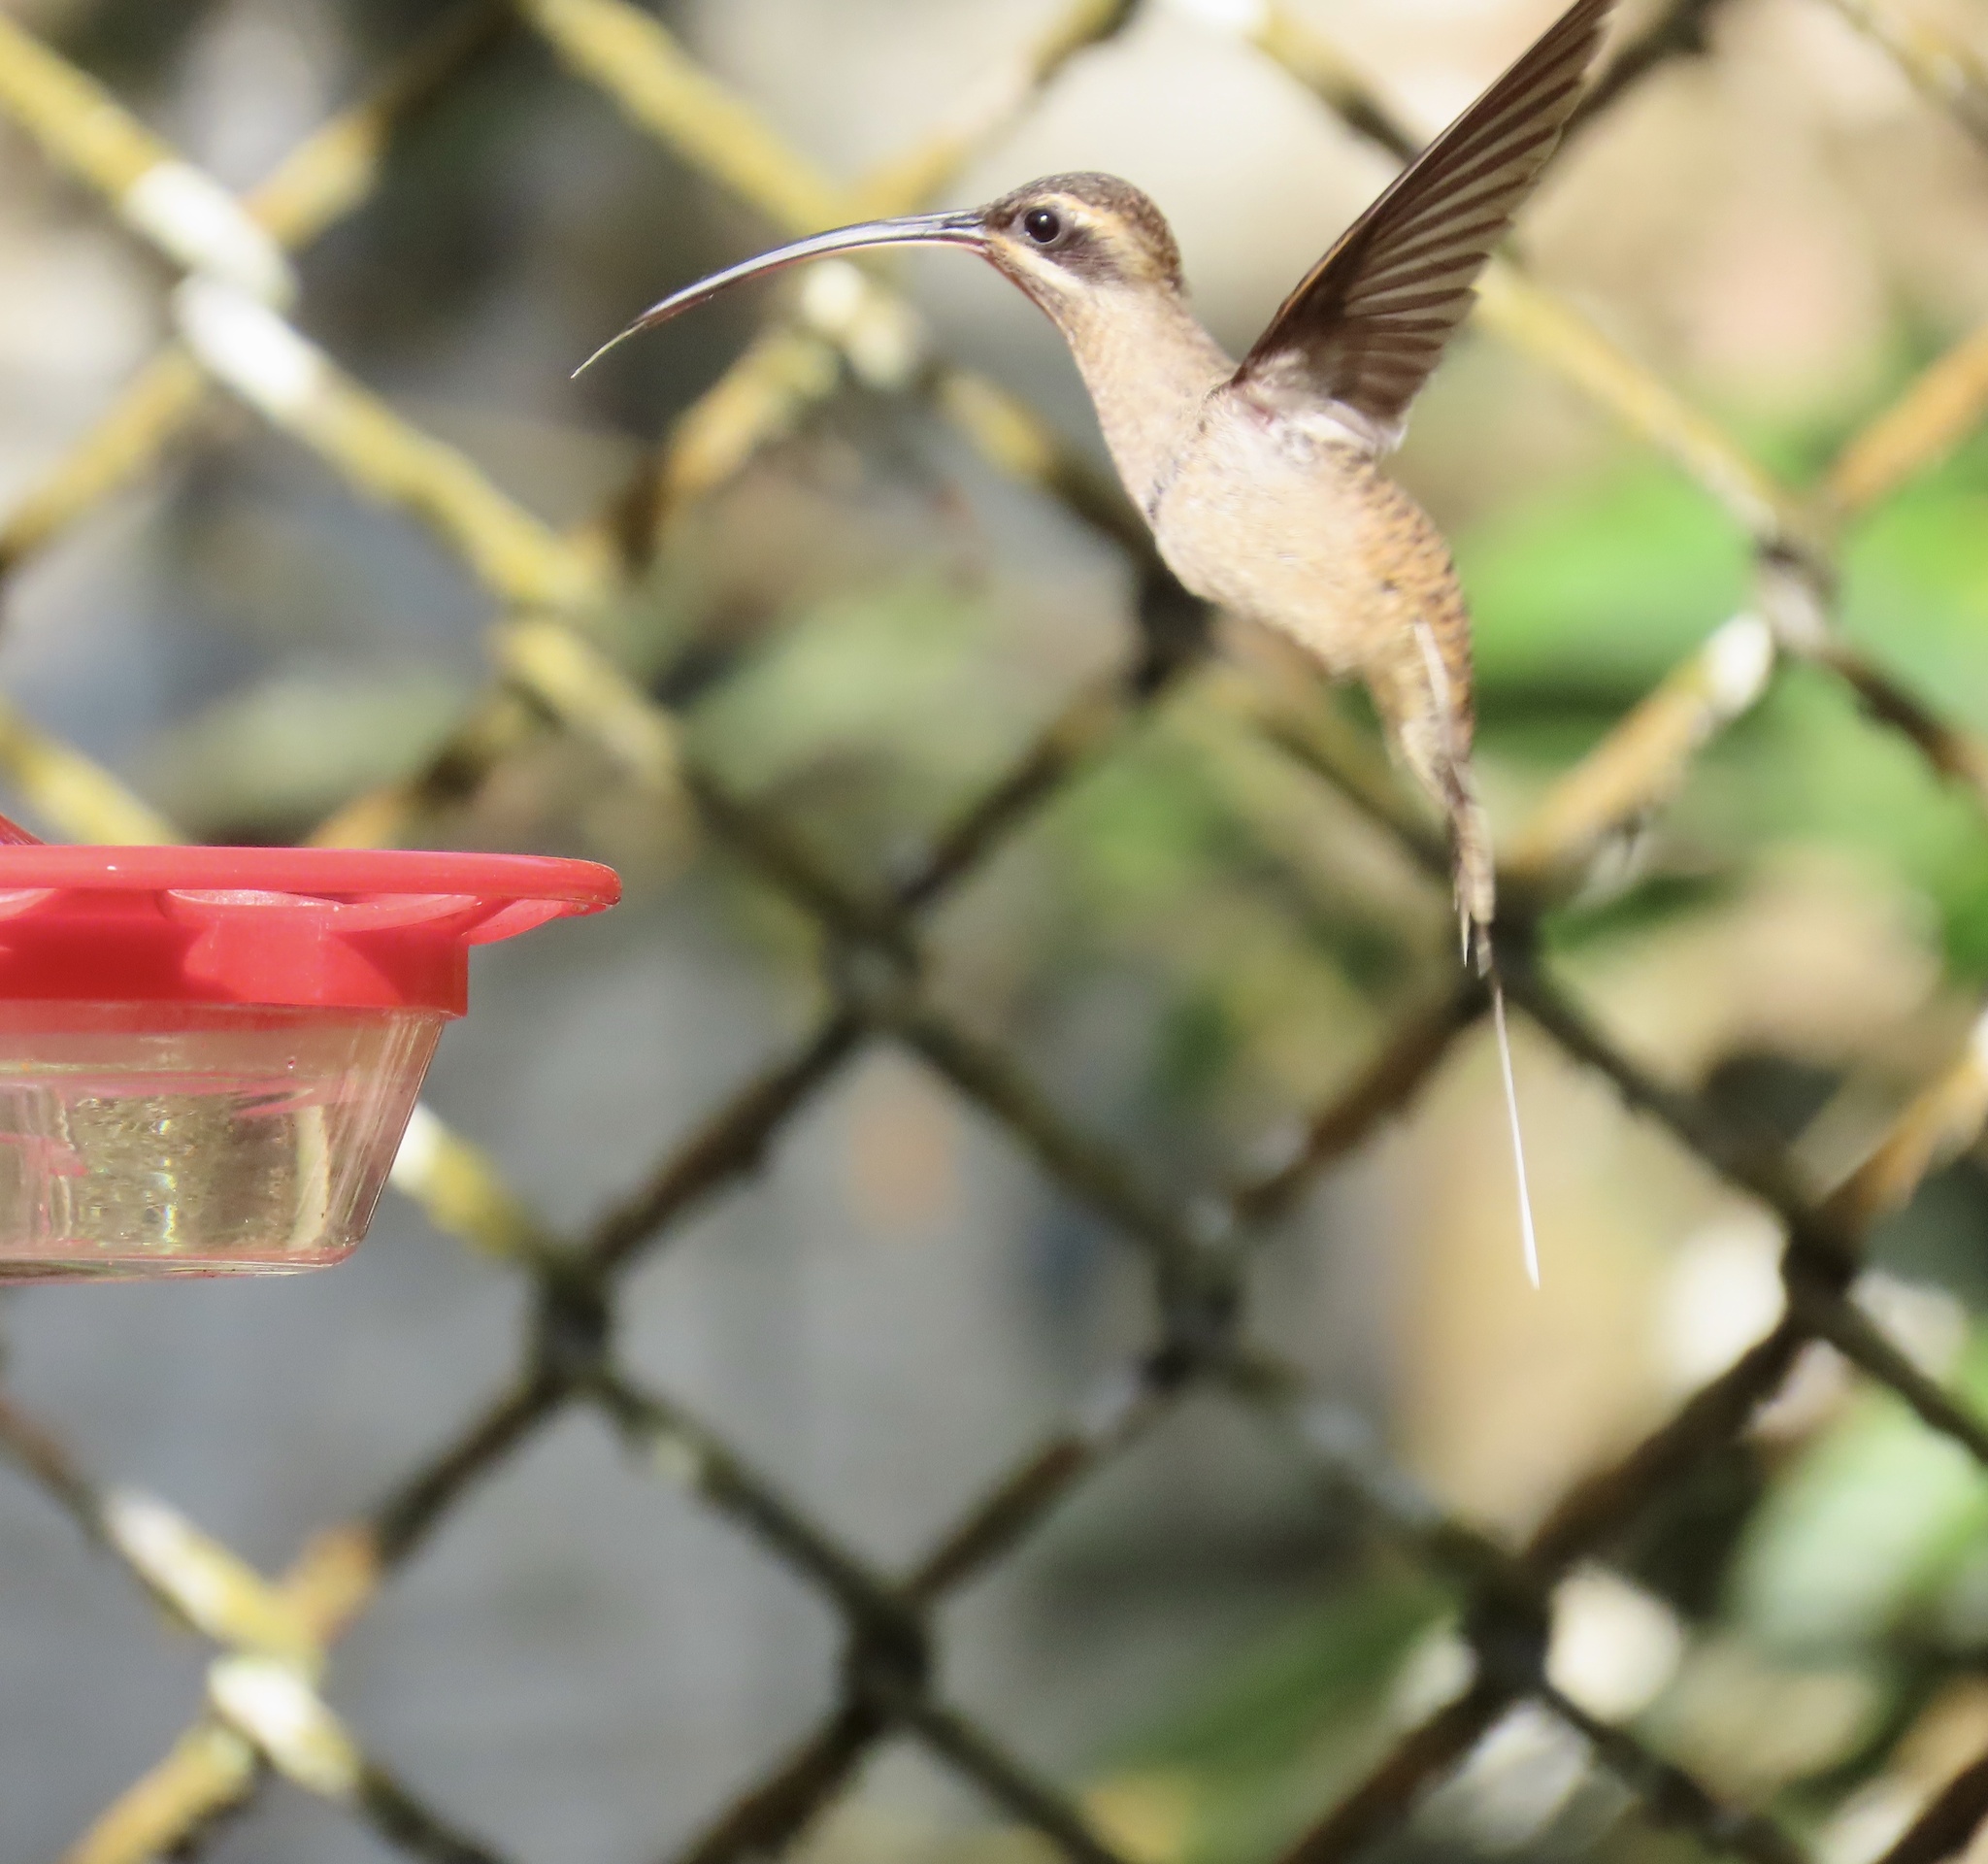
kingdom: Animalia
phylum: Chordata
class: Aves
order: Apodiformes
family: Trochilidae
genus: Phaethornis
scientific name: Phaethornis longirostris
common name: Long-billed hermit
